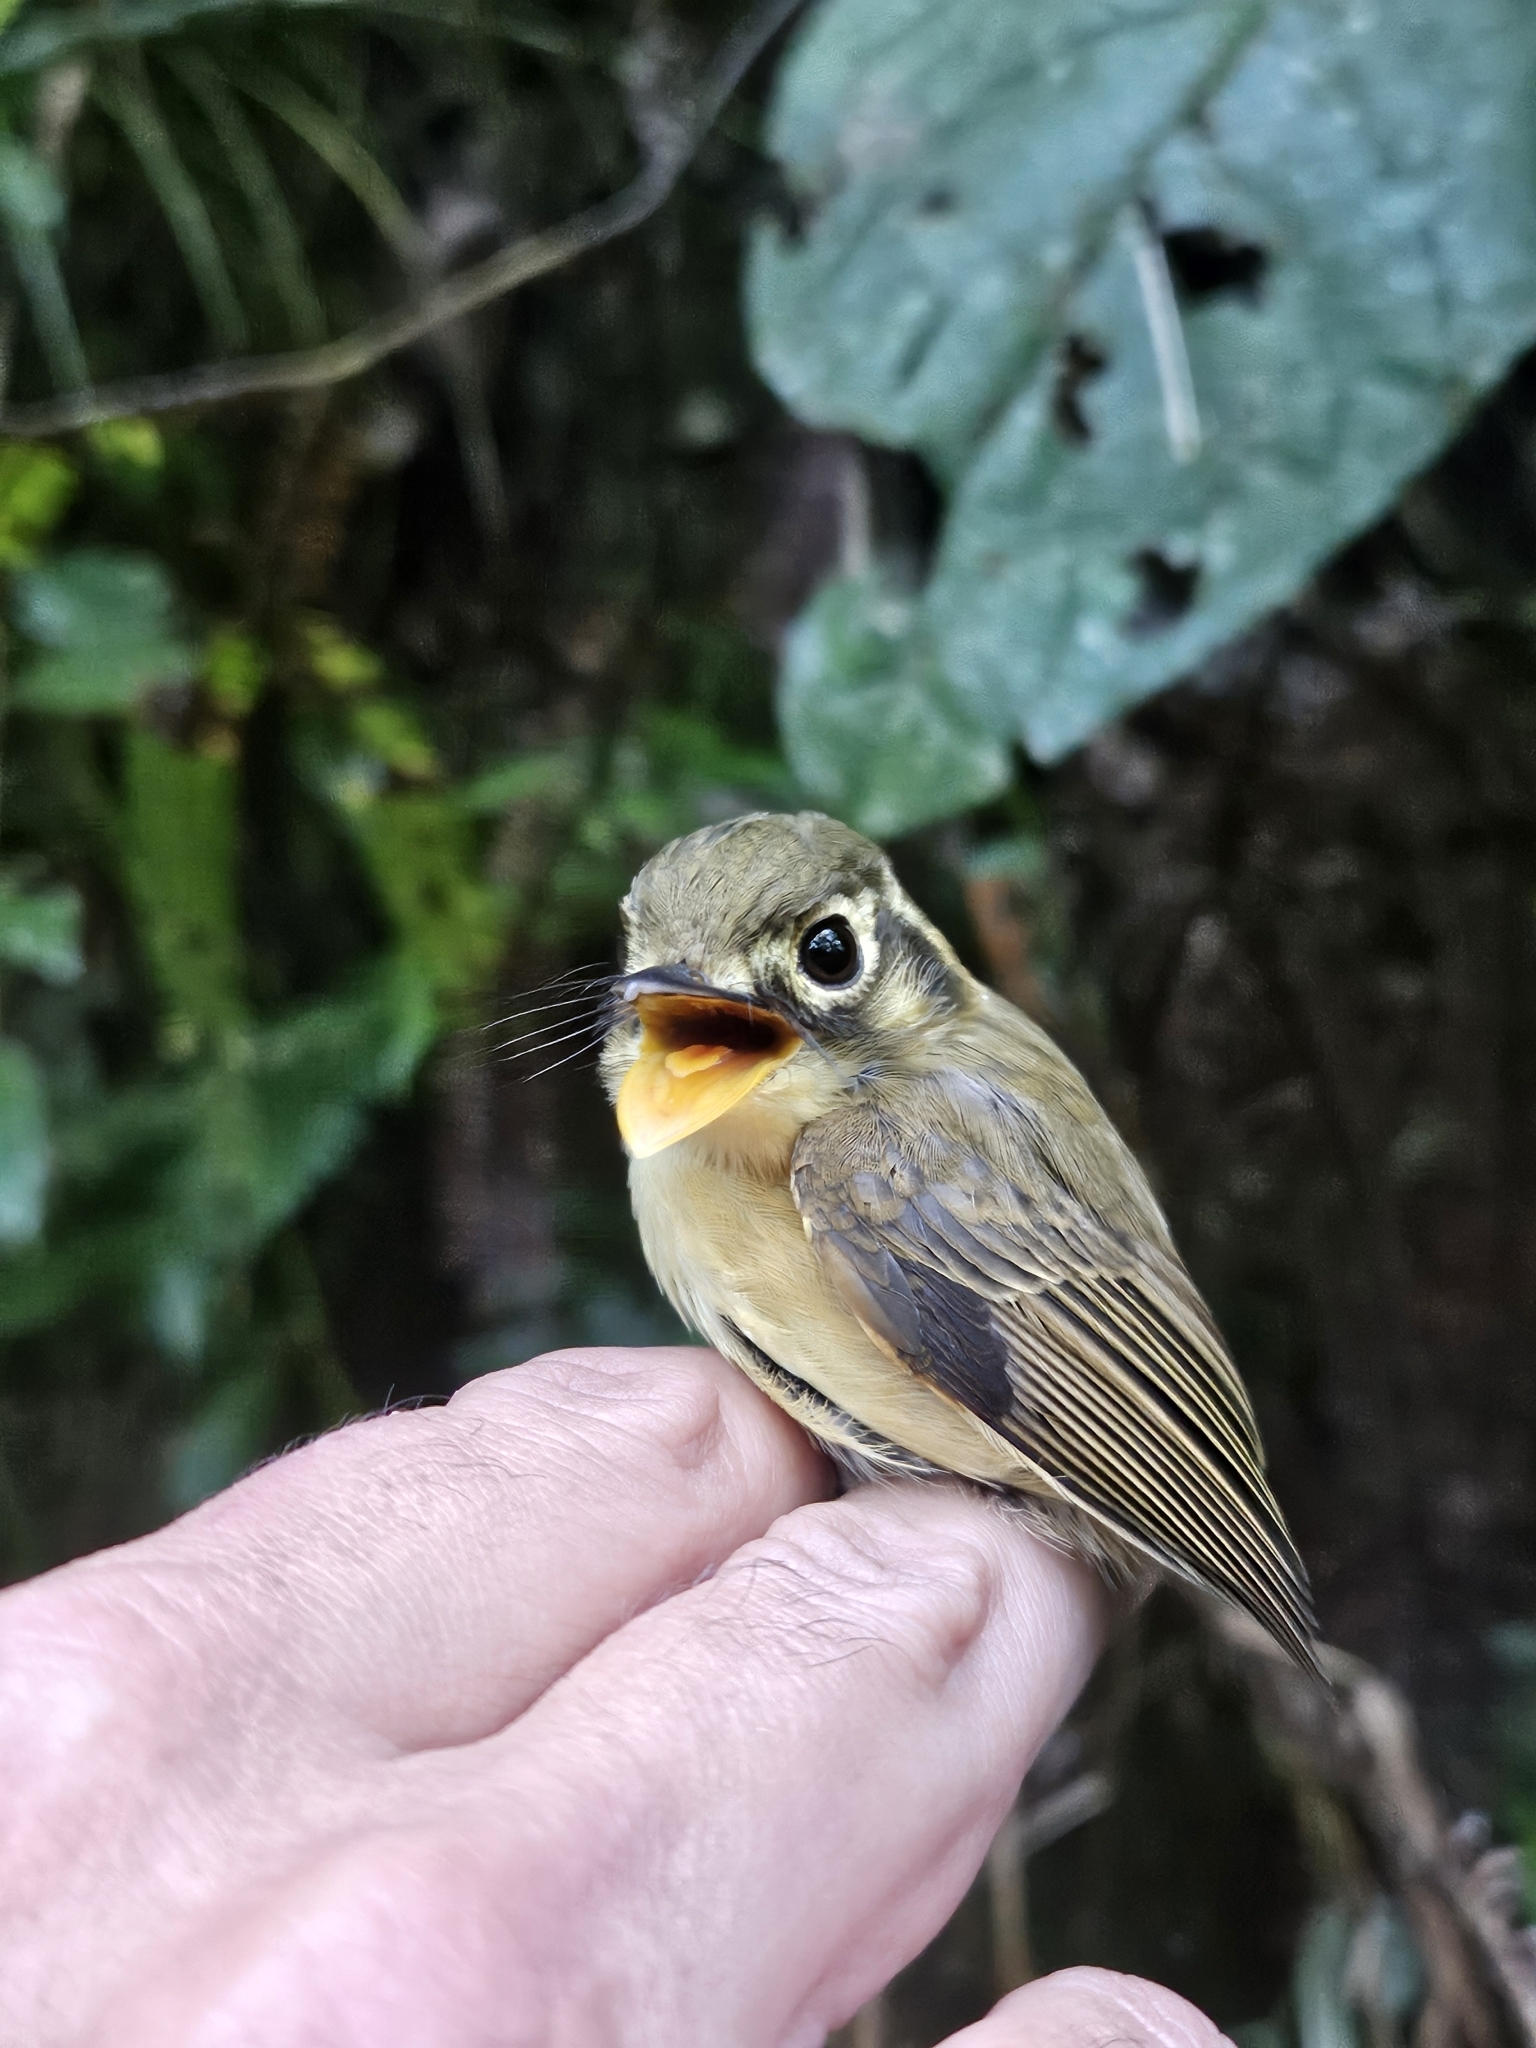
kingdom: Animalia
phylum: Chordata
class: Aves
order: Passeriformes
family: Tyrannidae
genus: Platyrinchus
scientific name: Platyrinchus mystaceus
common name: White-throated spadebill
